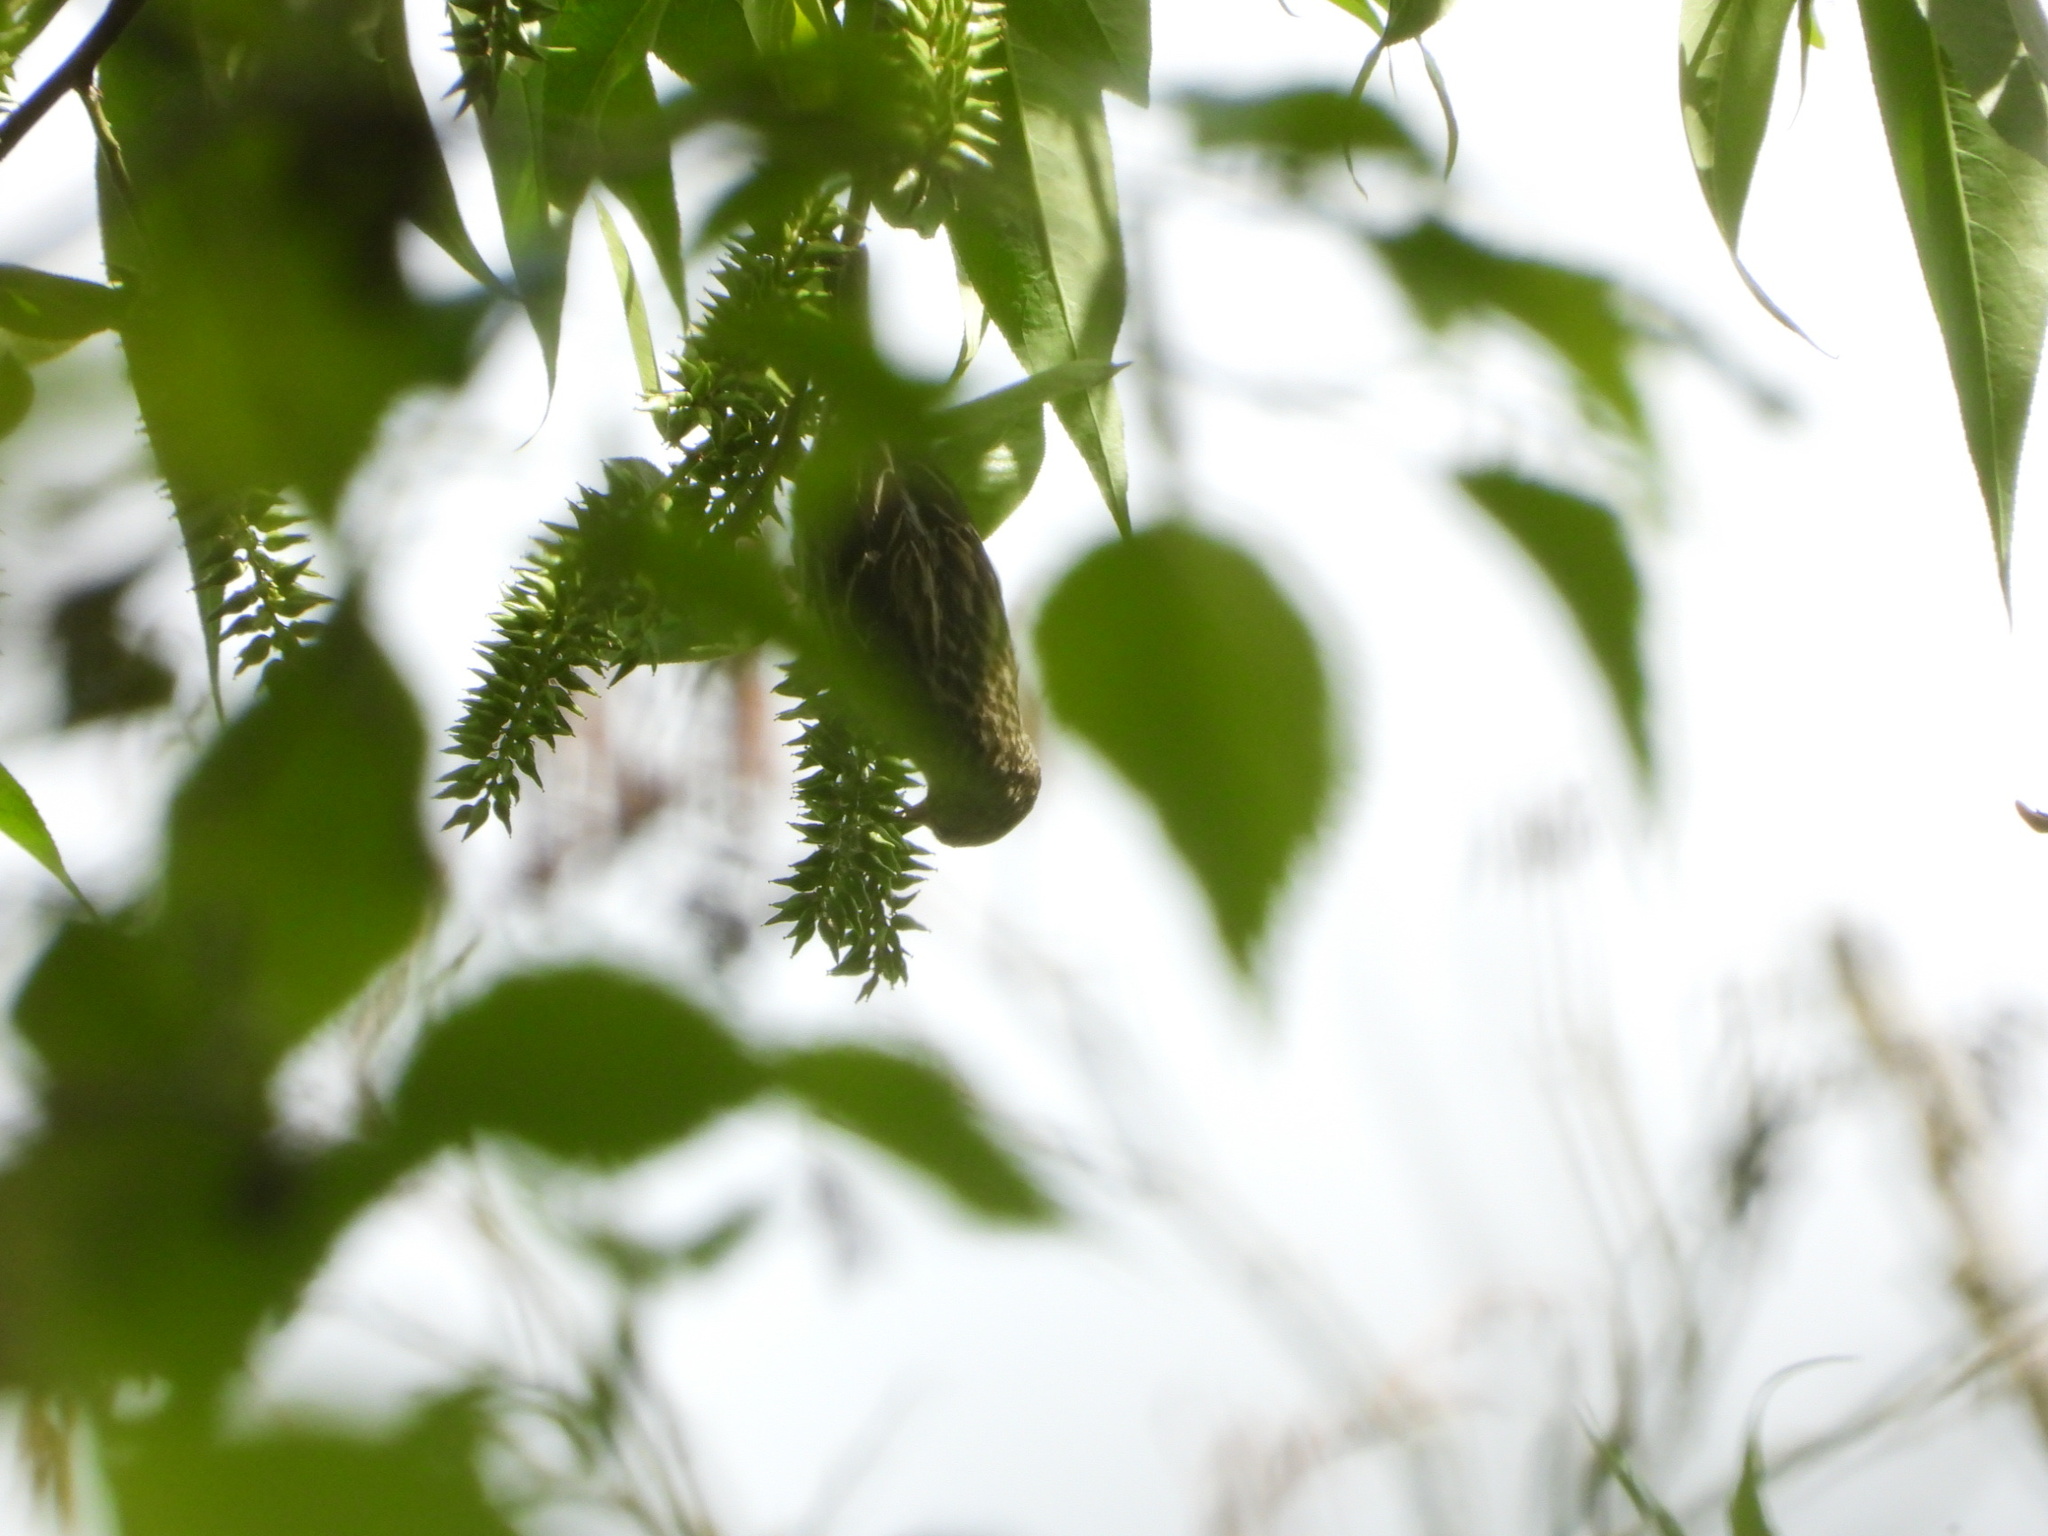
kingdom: Animalia
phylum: Chordata
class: Aves
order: Passeriformes
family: Fringillidae
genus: Spinus
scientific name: Spinus pinus
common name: Pine siskin
